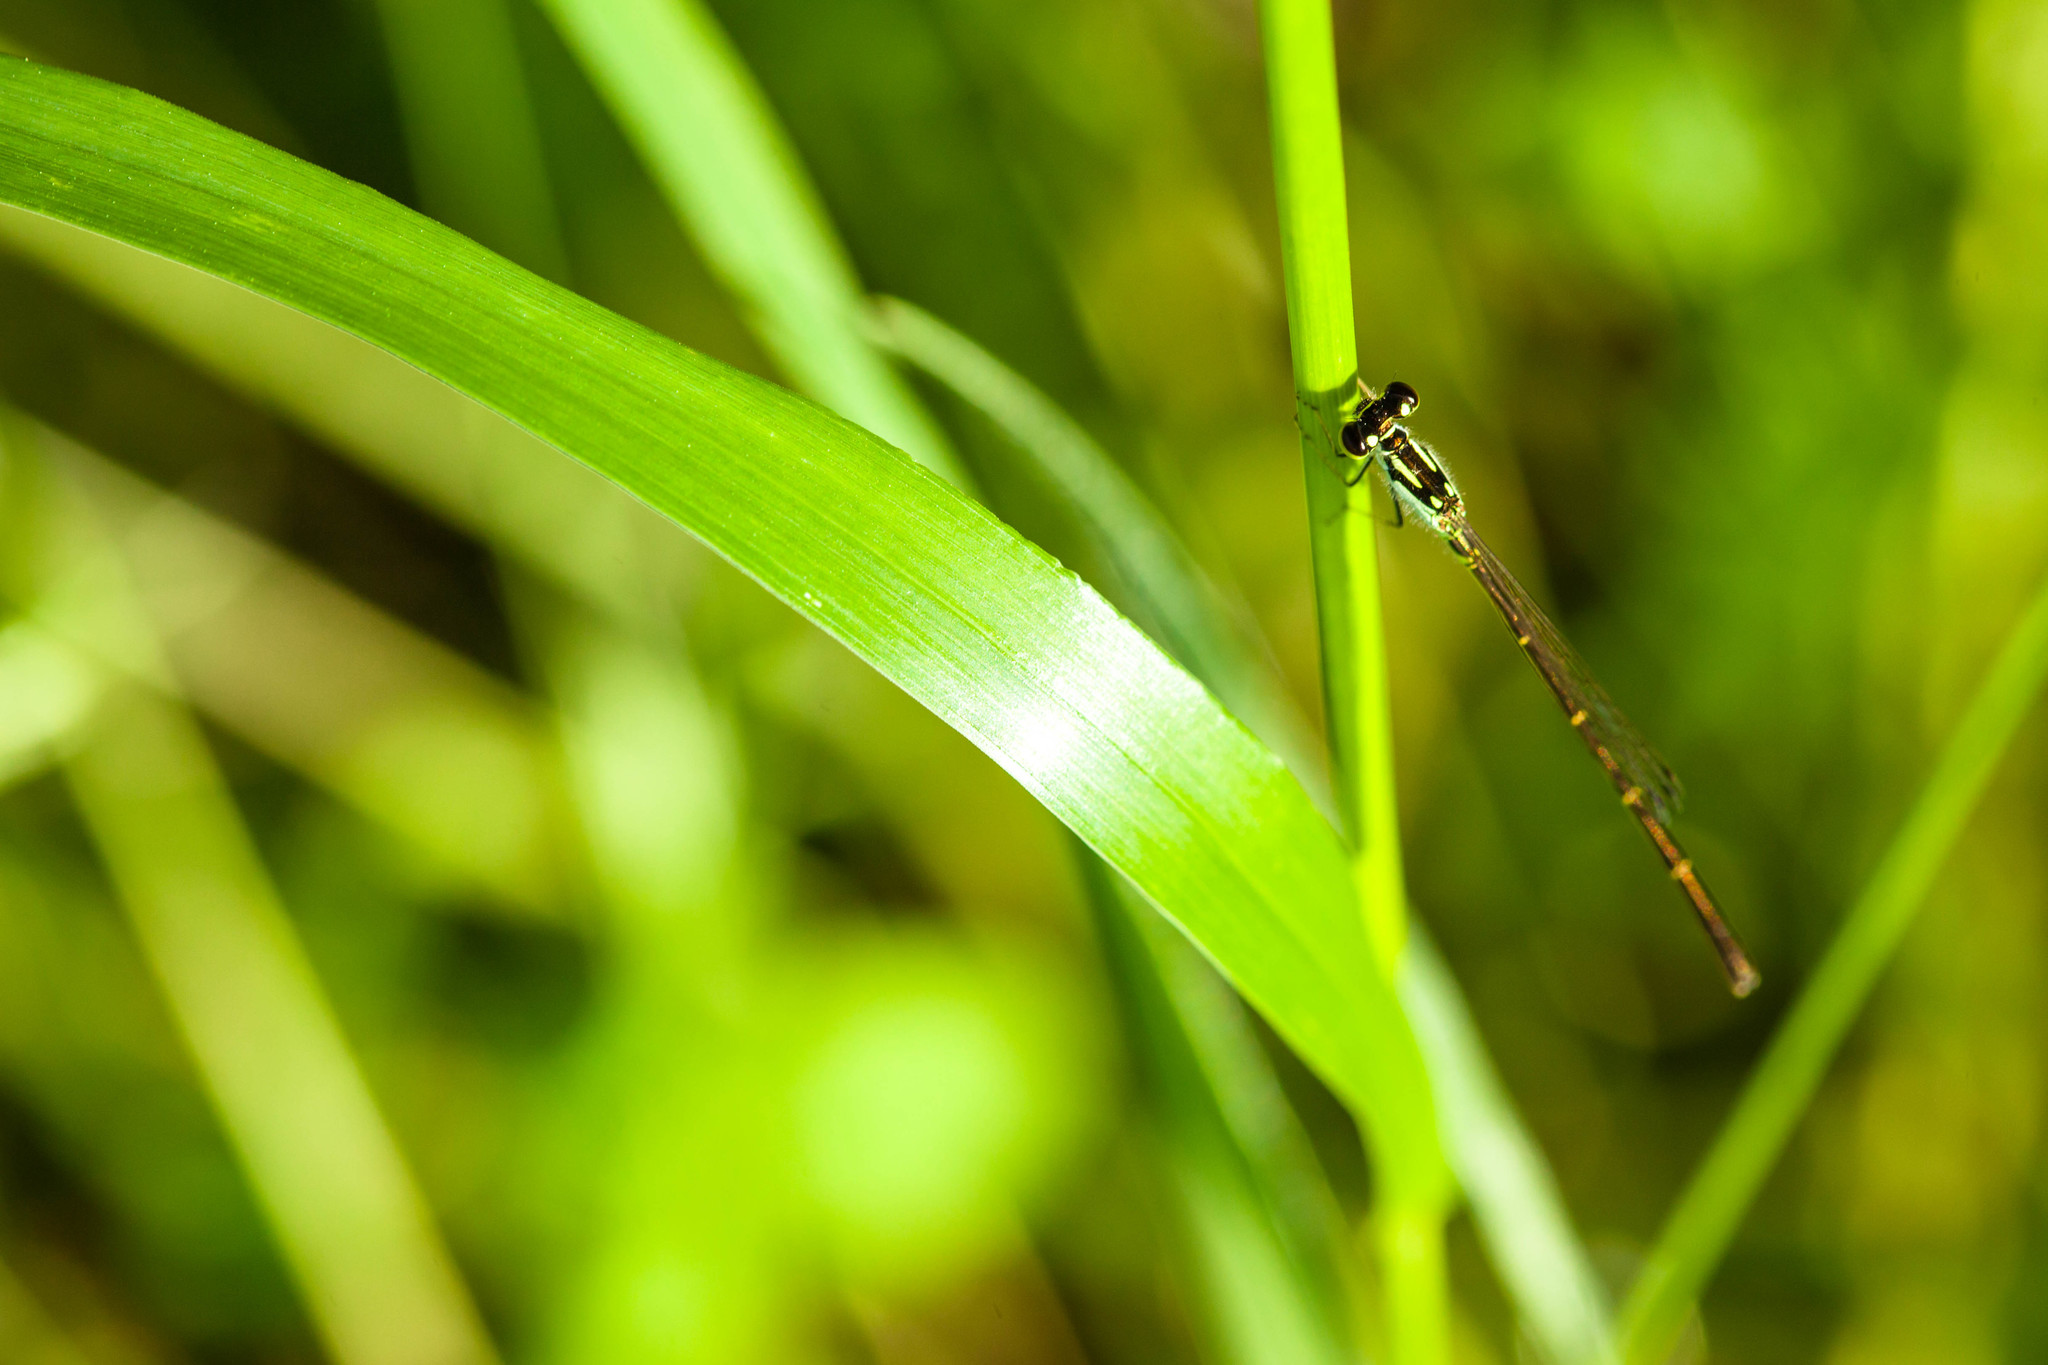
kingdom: Animalia
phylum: Arthropoda
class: Insecta
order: Odonata
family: Coenagrionidae
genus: Ischnura
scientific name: Ischnura posita
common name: Fragile forktail
